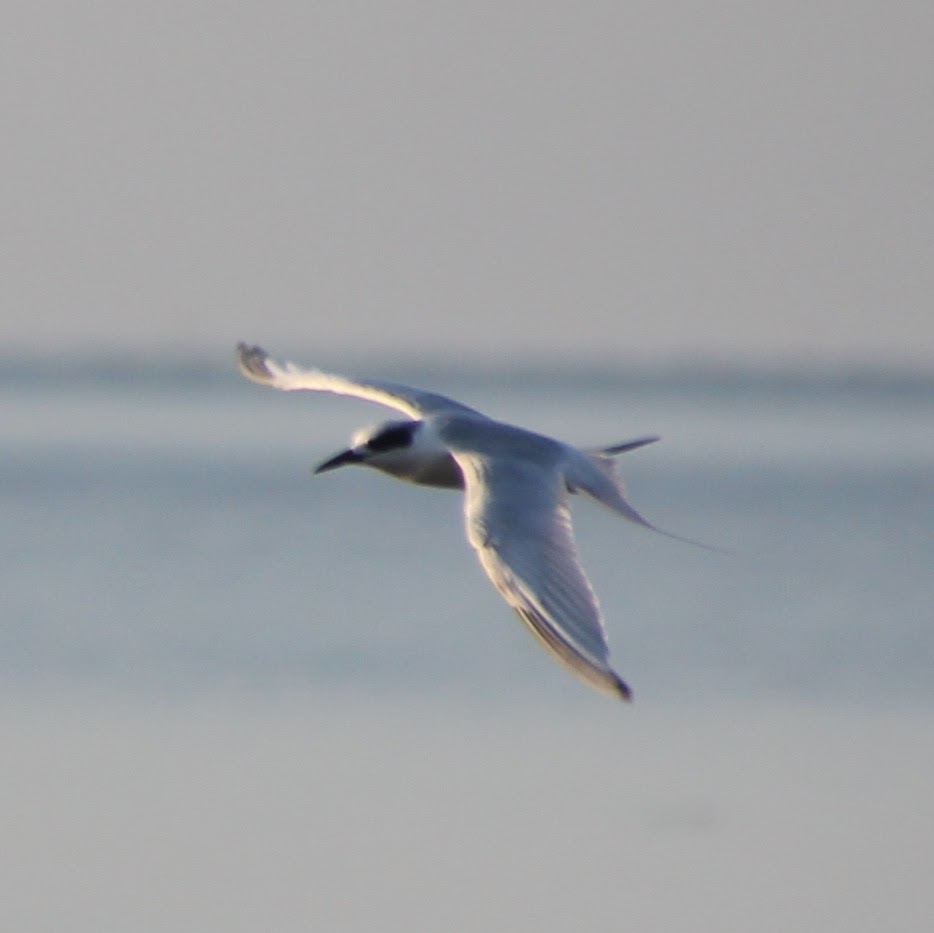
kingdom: Animalia
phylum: Chordata
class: Aves
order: Charadriiformes
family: Laridae
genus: Sterna
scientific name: Sterna forsteri
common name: Forster's tern
